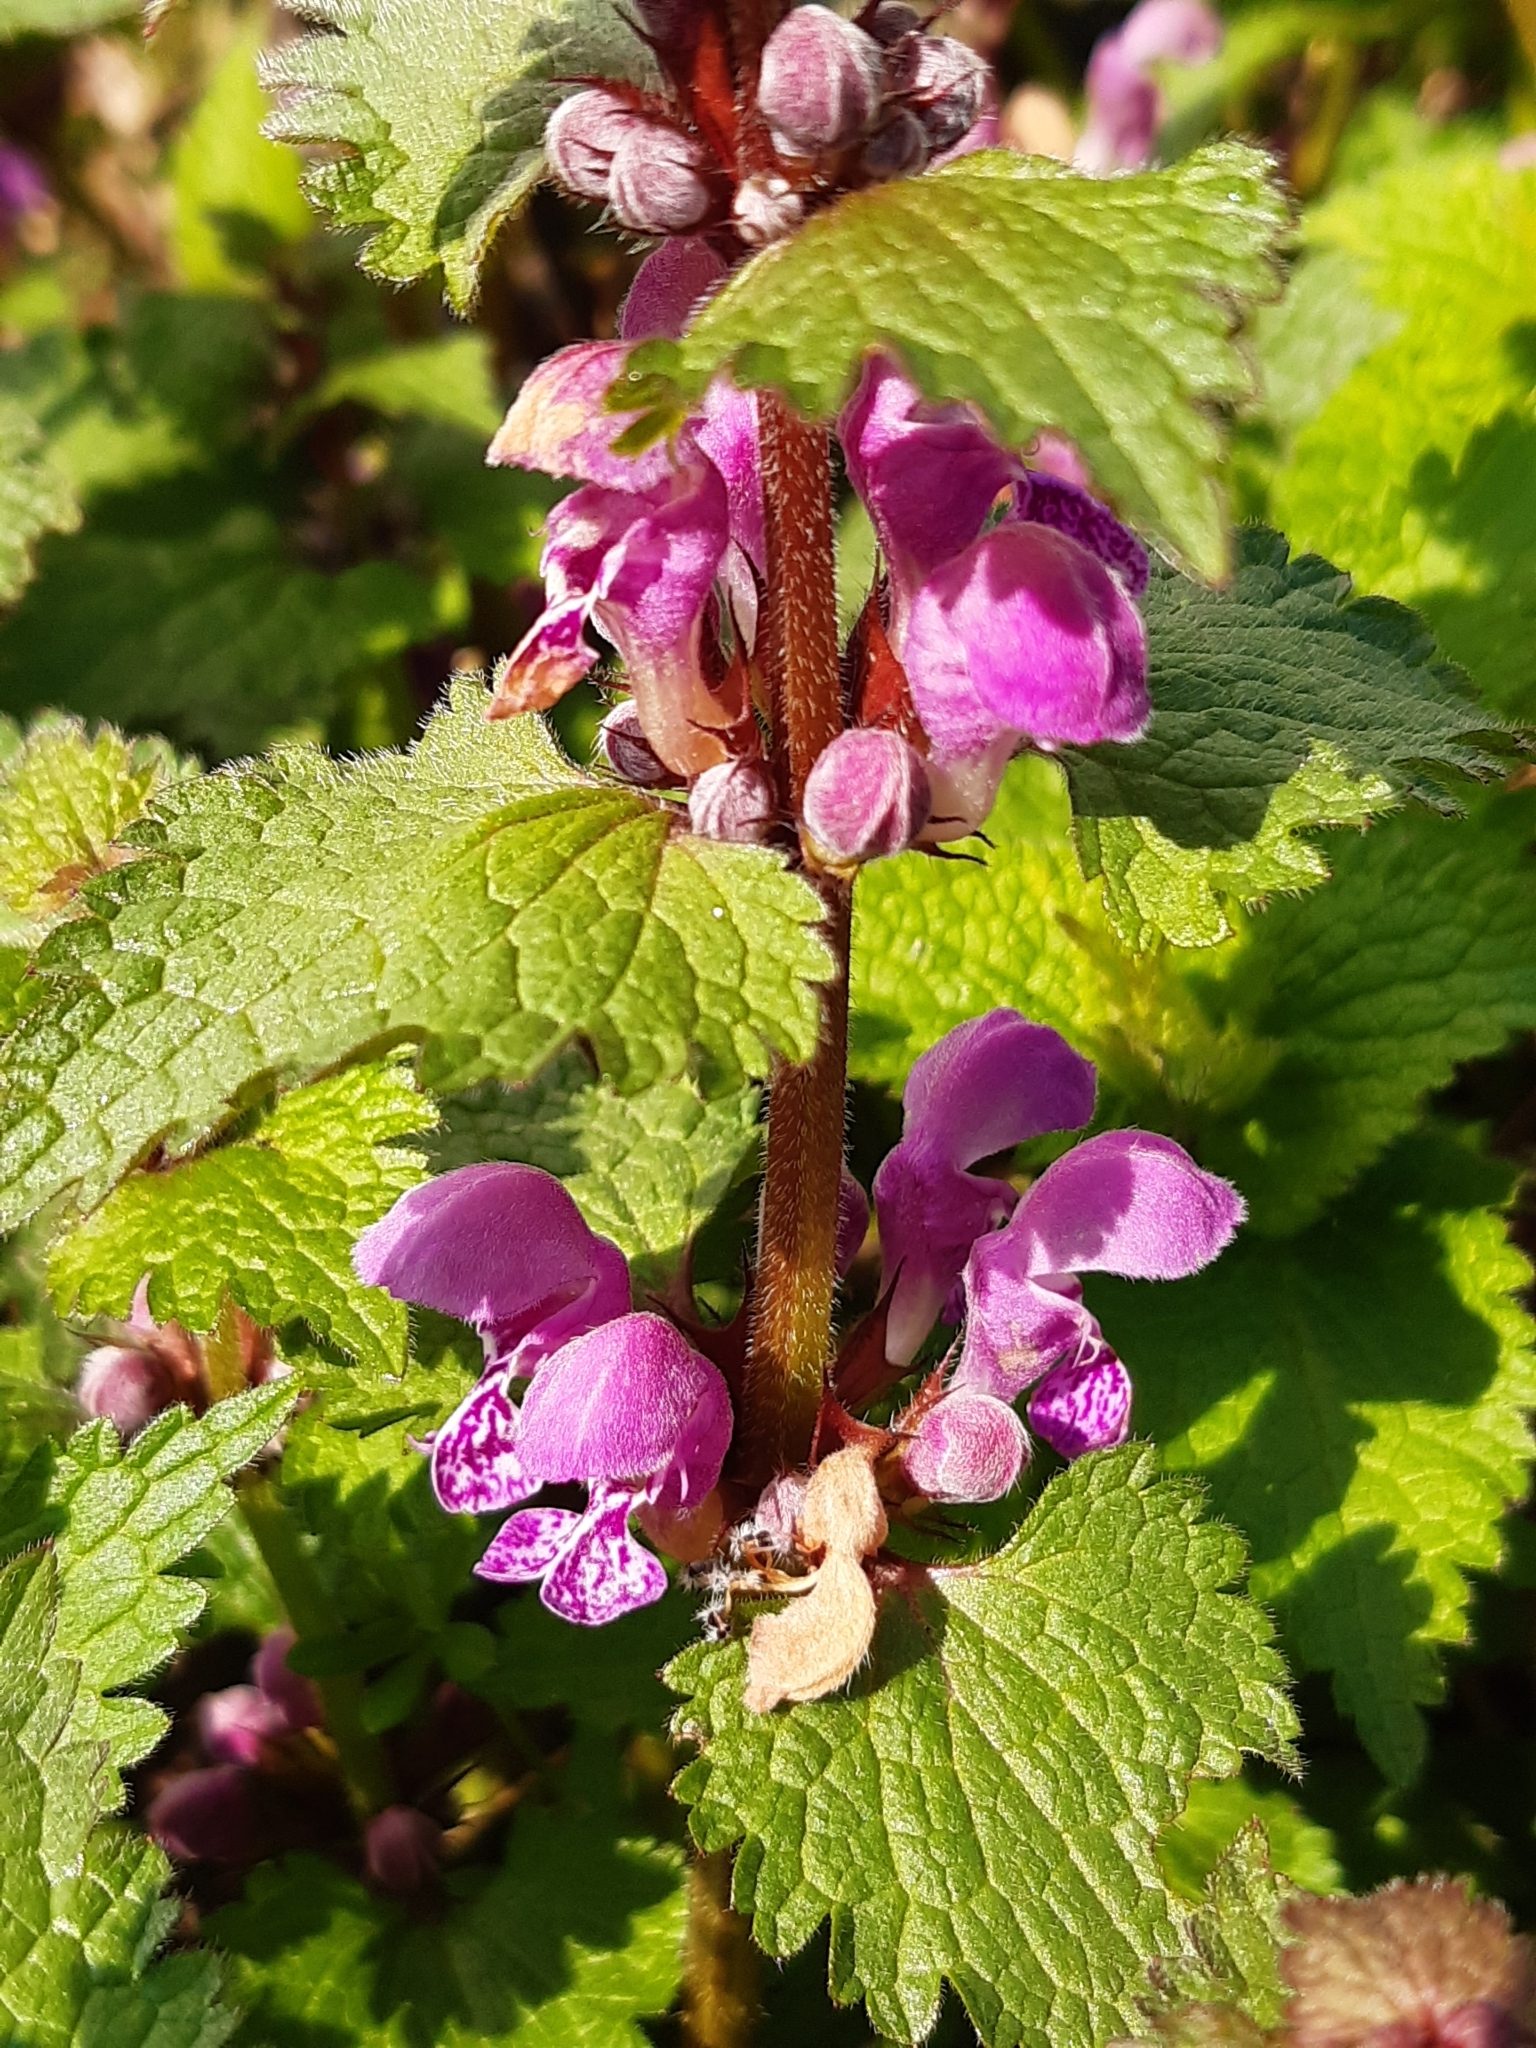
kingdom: Plantae
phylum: Tracheophyta
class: Magnoliopsida
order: Lamiales
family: Lamiaceae
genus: Lamium
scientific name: Lamium maculatum
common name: Spotted dead-nettle
